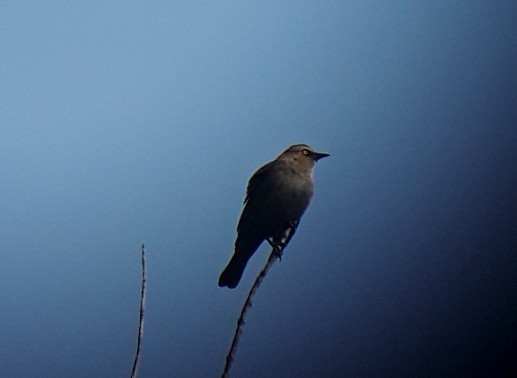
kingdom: Animalia
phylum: Chordata
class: Aves
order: Passeriformes
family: Icteridae
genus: Euphagus
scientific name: Euphagus carolinus
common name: Rusty blackbird
